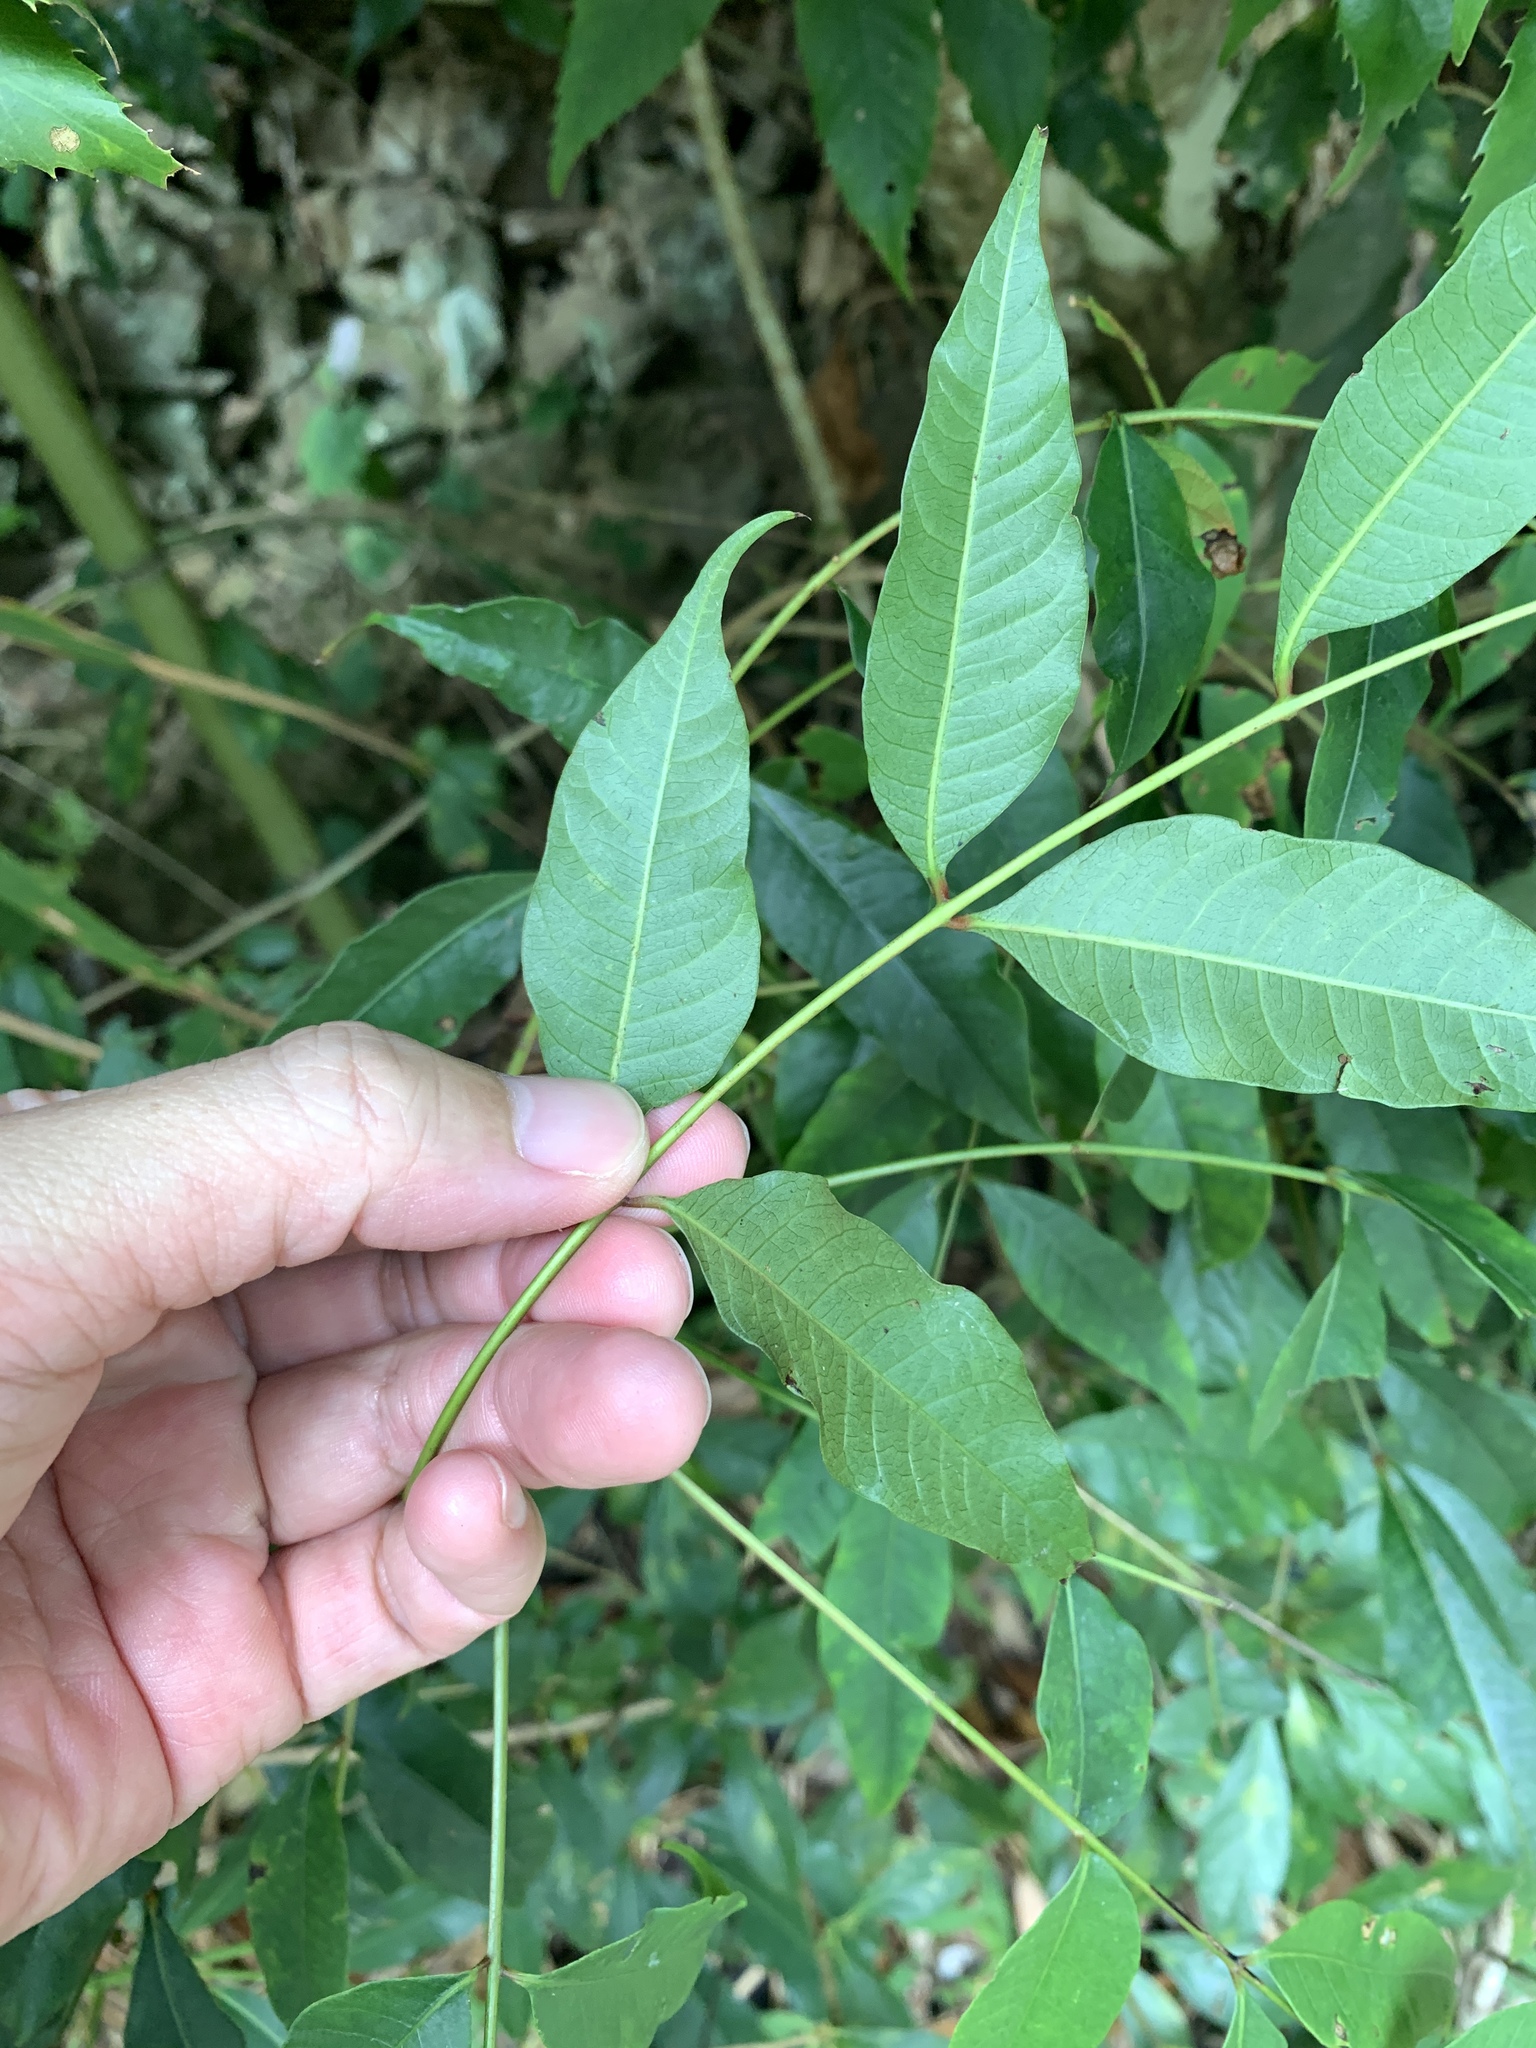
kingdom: Plantae
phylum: Tracheophyta
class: Magnoliopsida
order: Sapindales
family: Anacardiaceae
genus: Toxicodendron
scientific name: Toxicodendron succedaneum
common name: Wax tree
